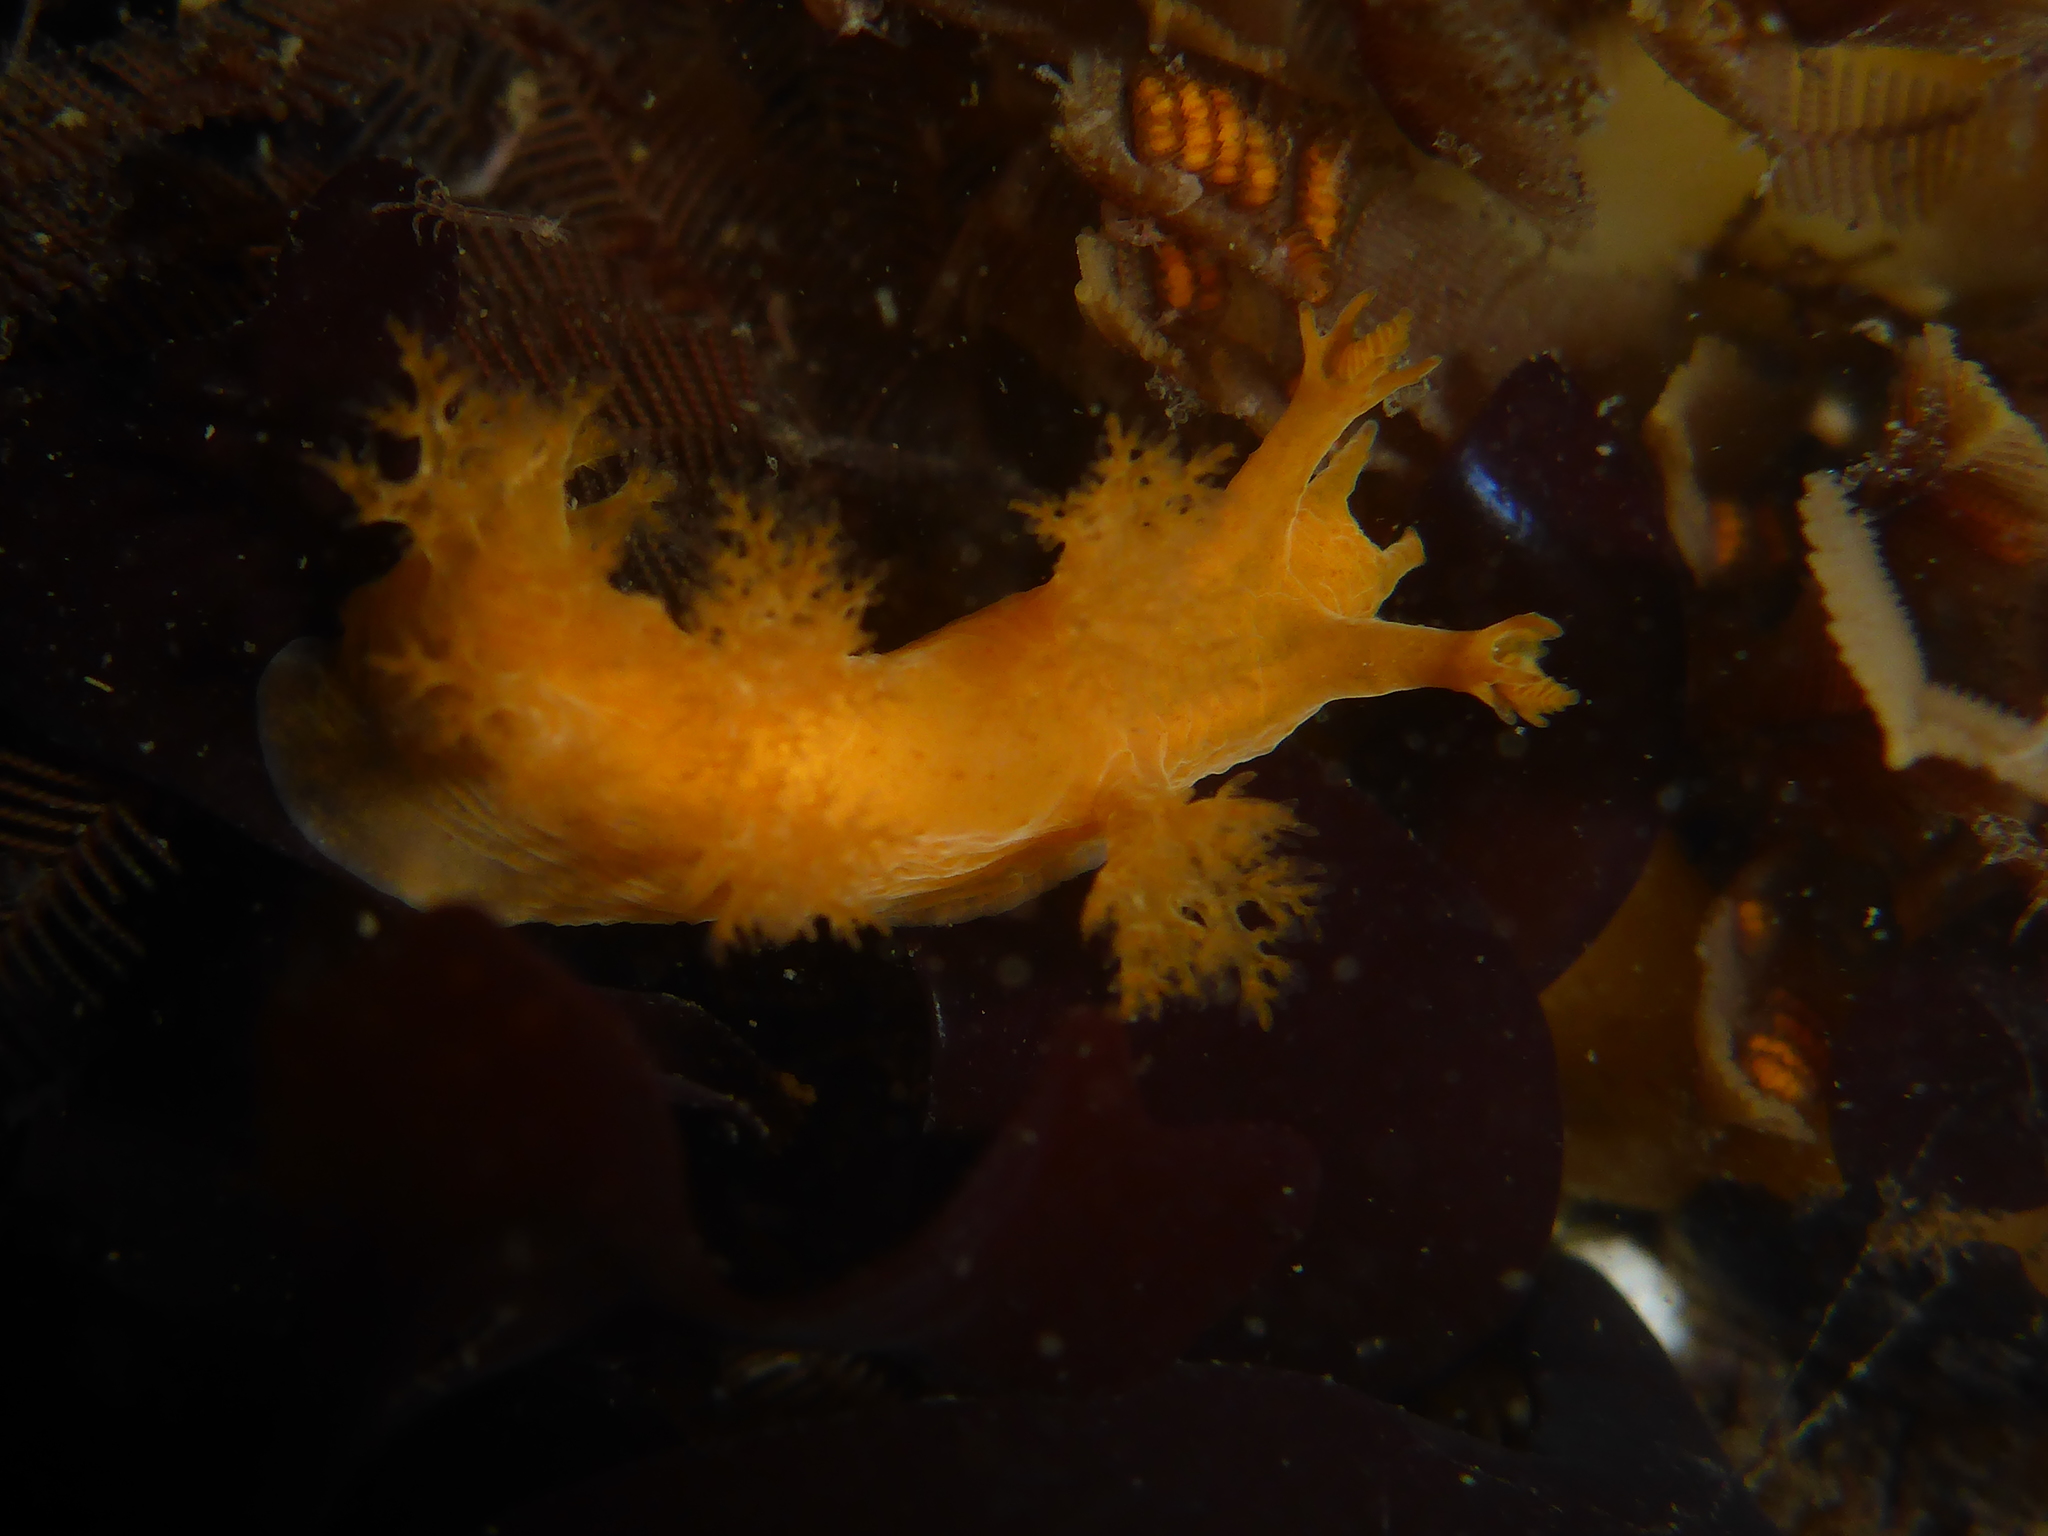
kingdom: Animalia
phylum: Mollusca
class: Gastropoda
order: Nudibranchia
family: Dendronotidae
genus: Dendronotus
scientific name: Dendronotus subramosus
